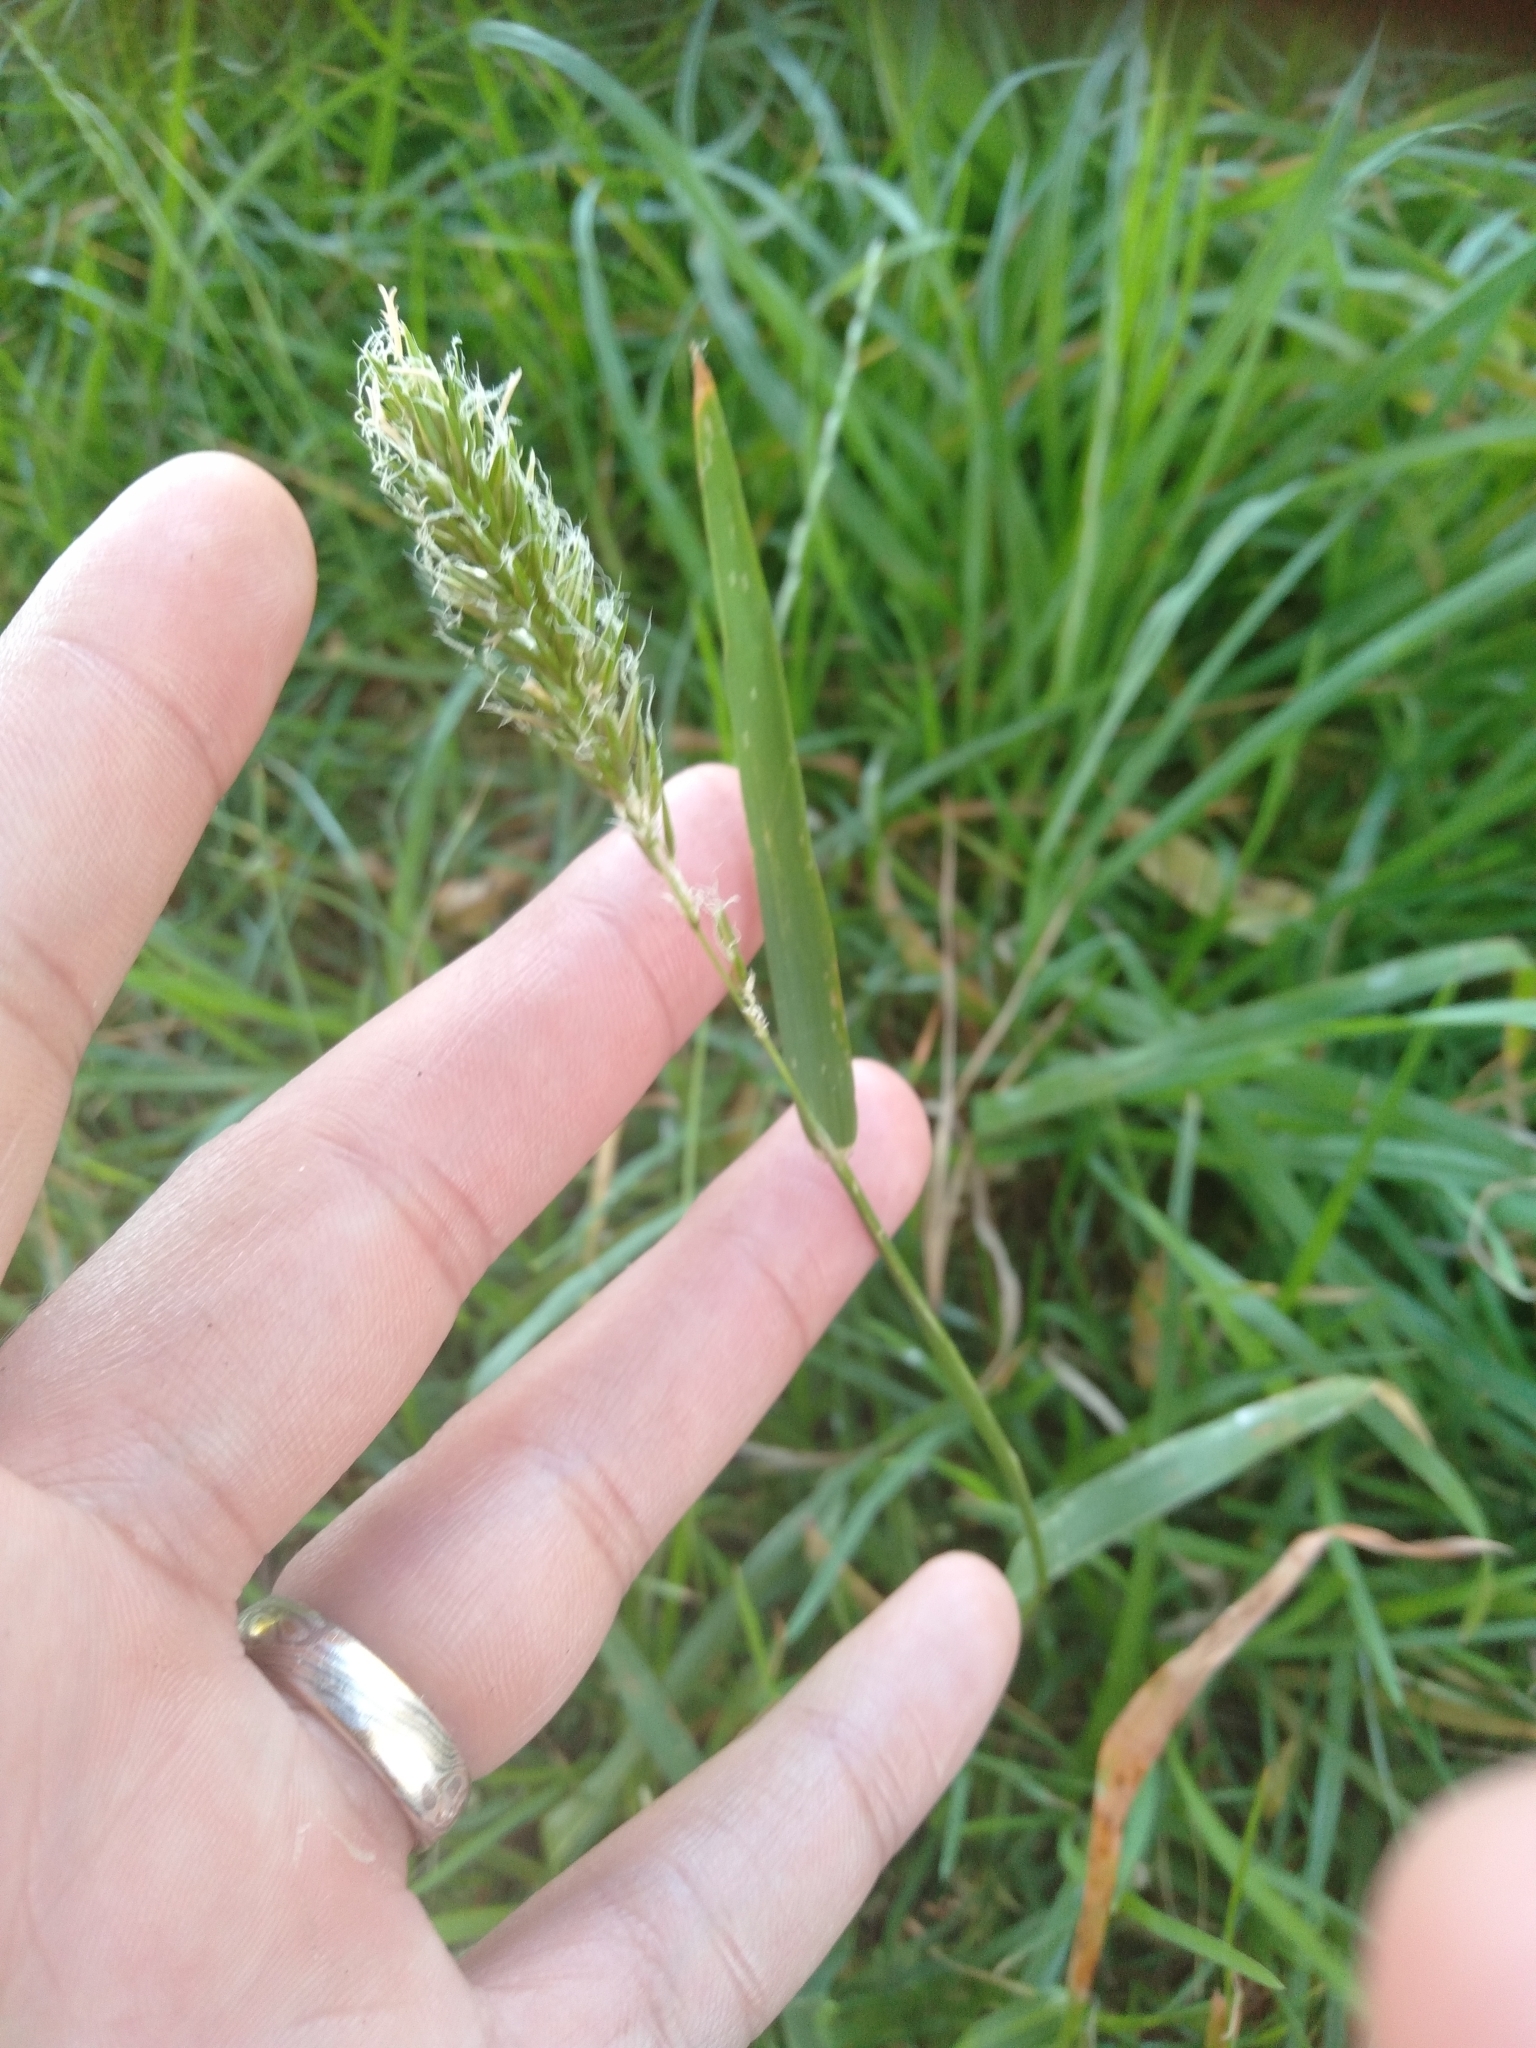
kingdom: Plantae
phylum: Tracheophyta
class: Liliopsida
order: Poales
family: Poaceae
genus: Anthoxanthum
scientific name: Anthoxanthum odoratum
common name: Sweet vernalgrass
